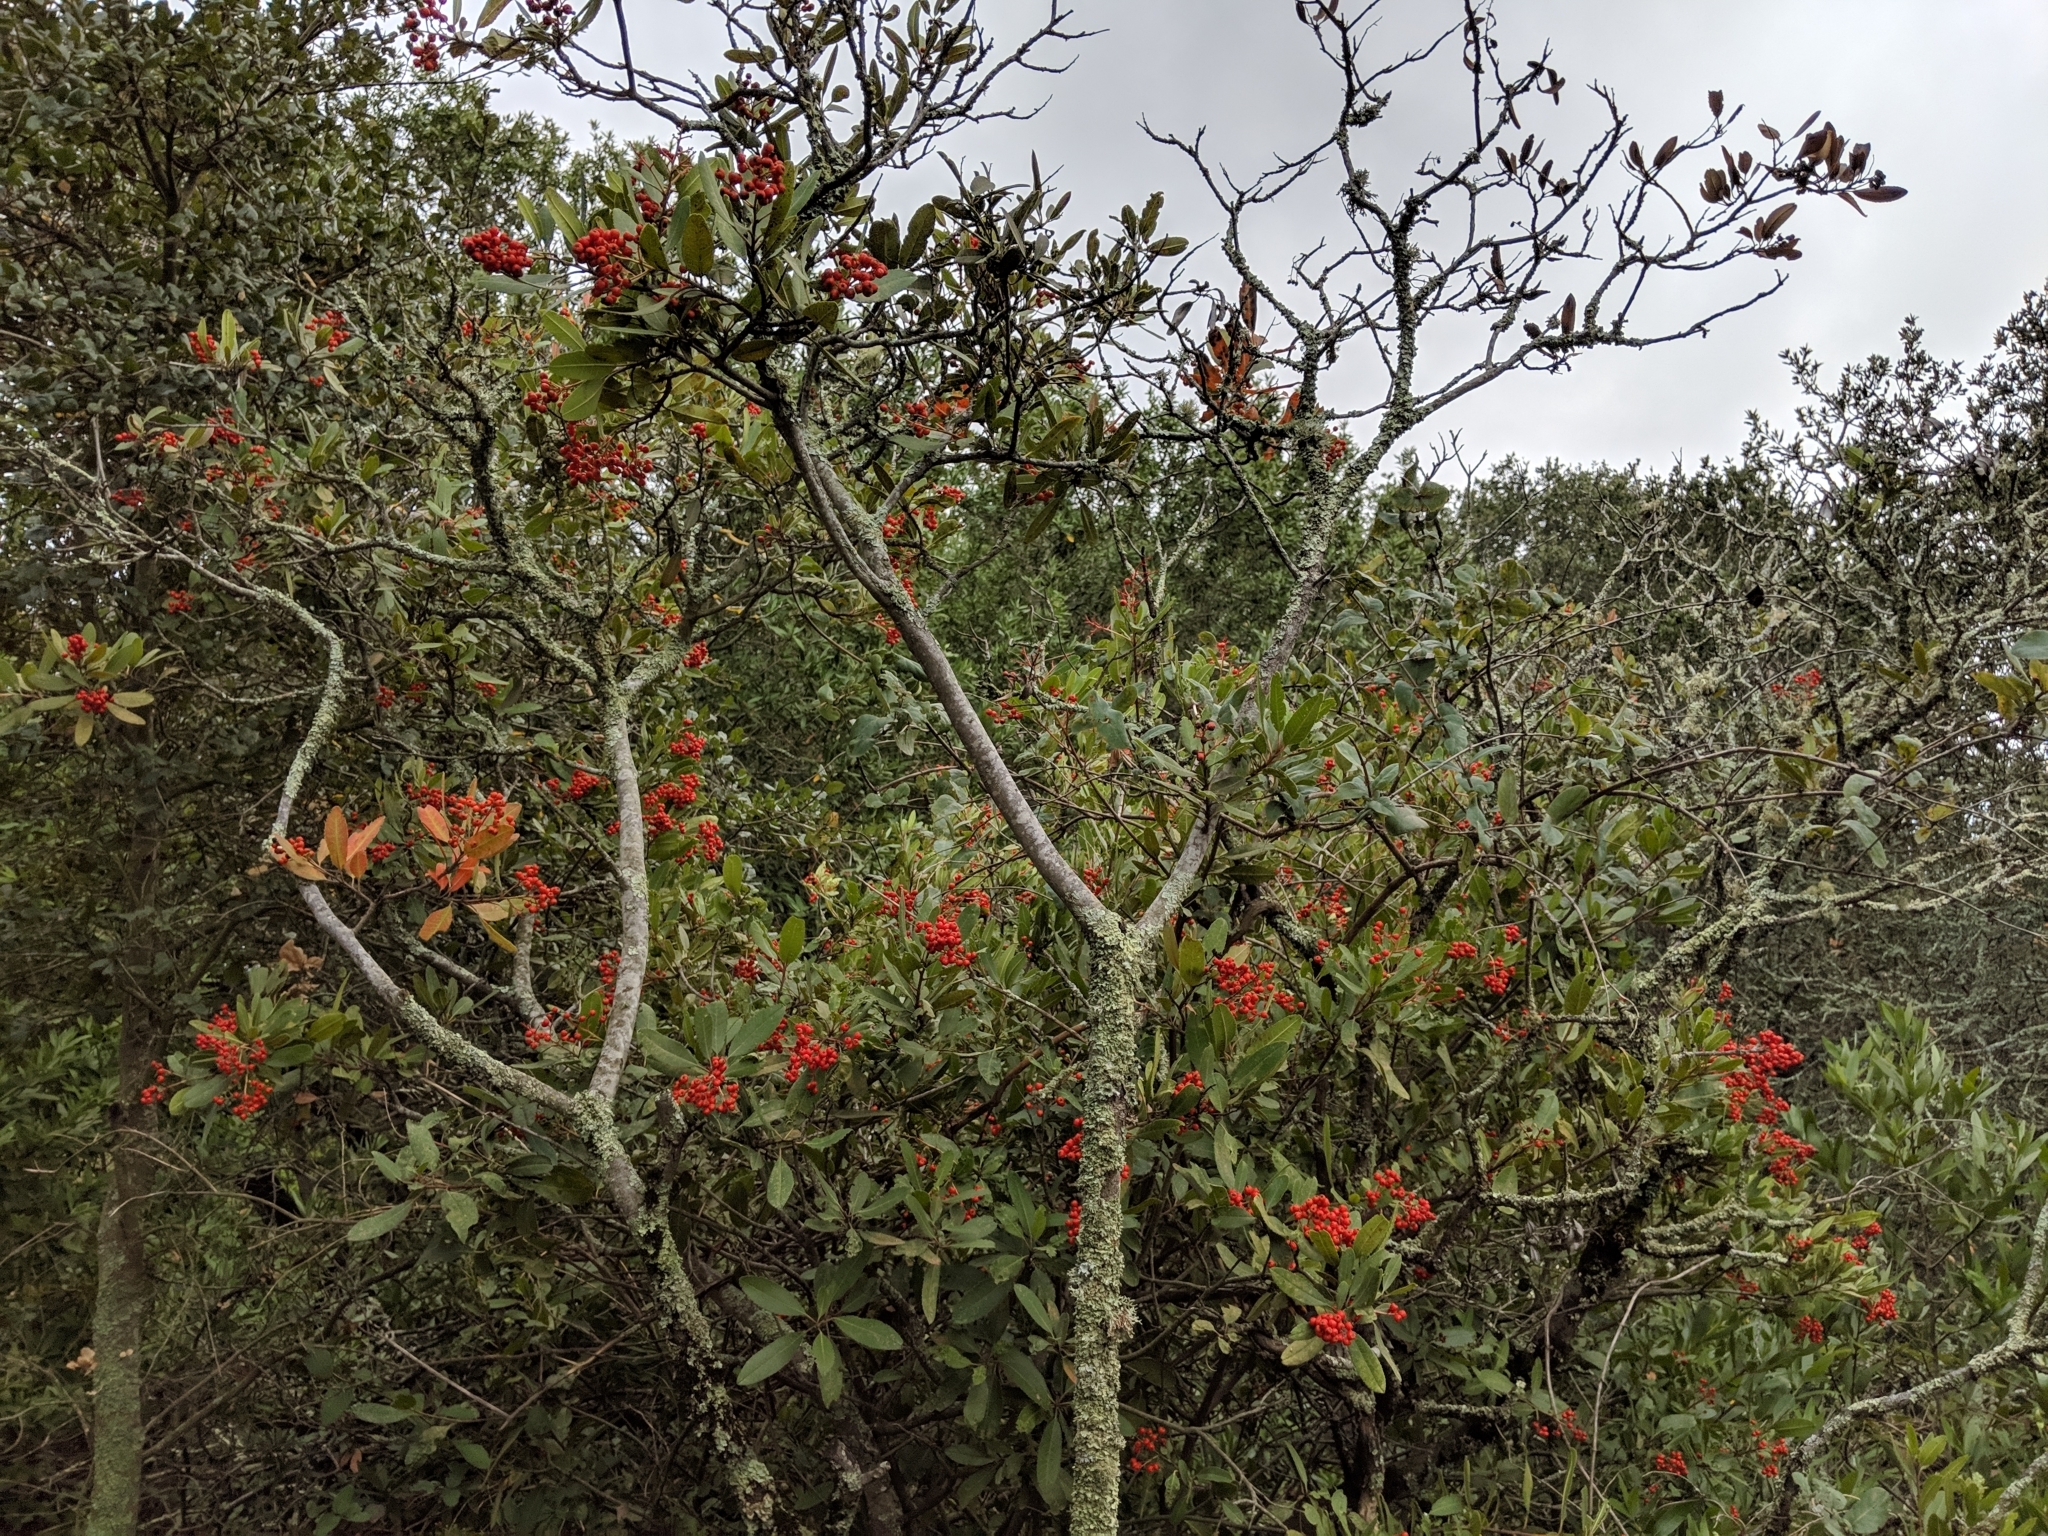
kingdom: Plantae
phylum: Tracheophyta
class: Magnoliopsida
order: Rosales
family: Rosaceae
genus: Heteromeles
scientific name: Heteromeles arbutifolia
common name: California-holly
